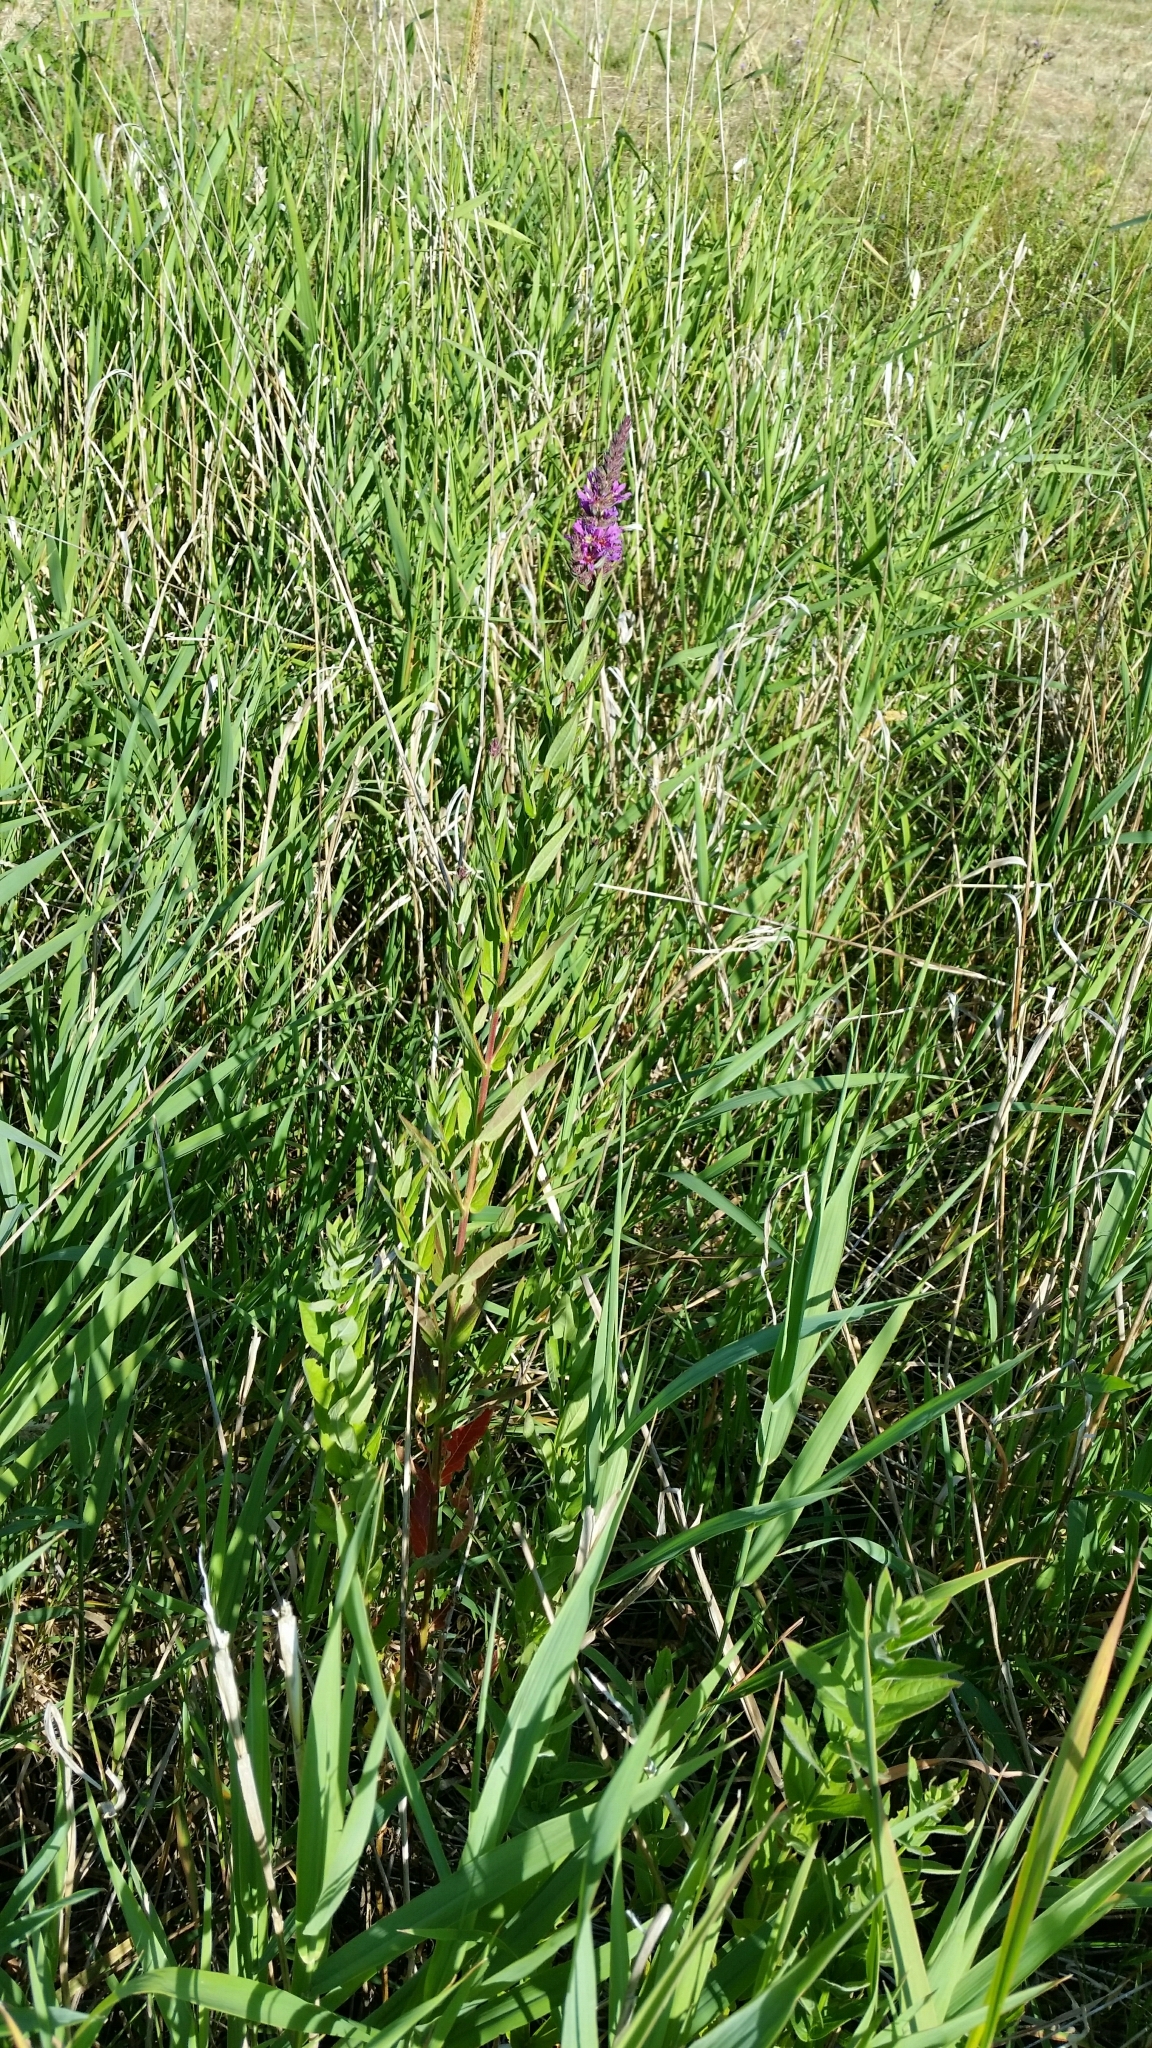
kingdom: Plantae
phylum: Tracheophyta
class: Magnoliopsida
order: Myrtales
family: Lythraceae
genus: Lythrum
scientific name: Lythrum salicaria
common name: Purple loosestrife
